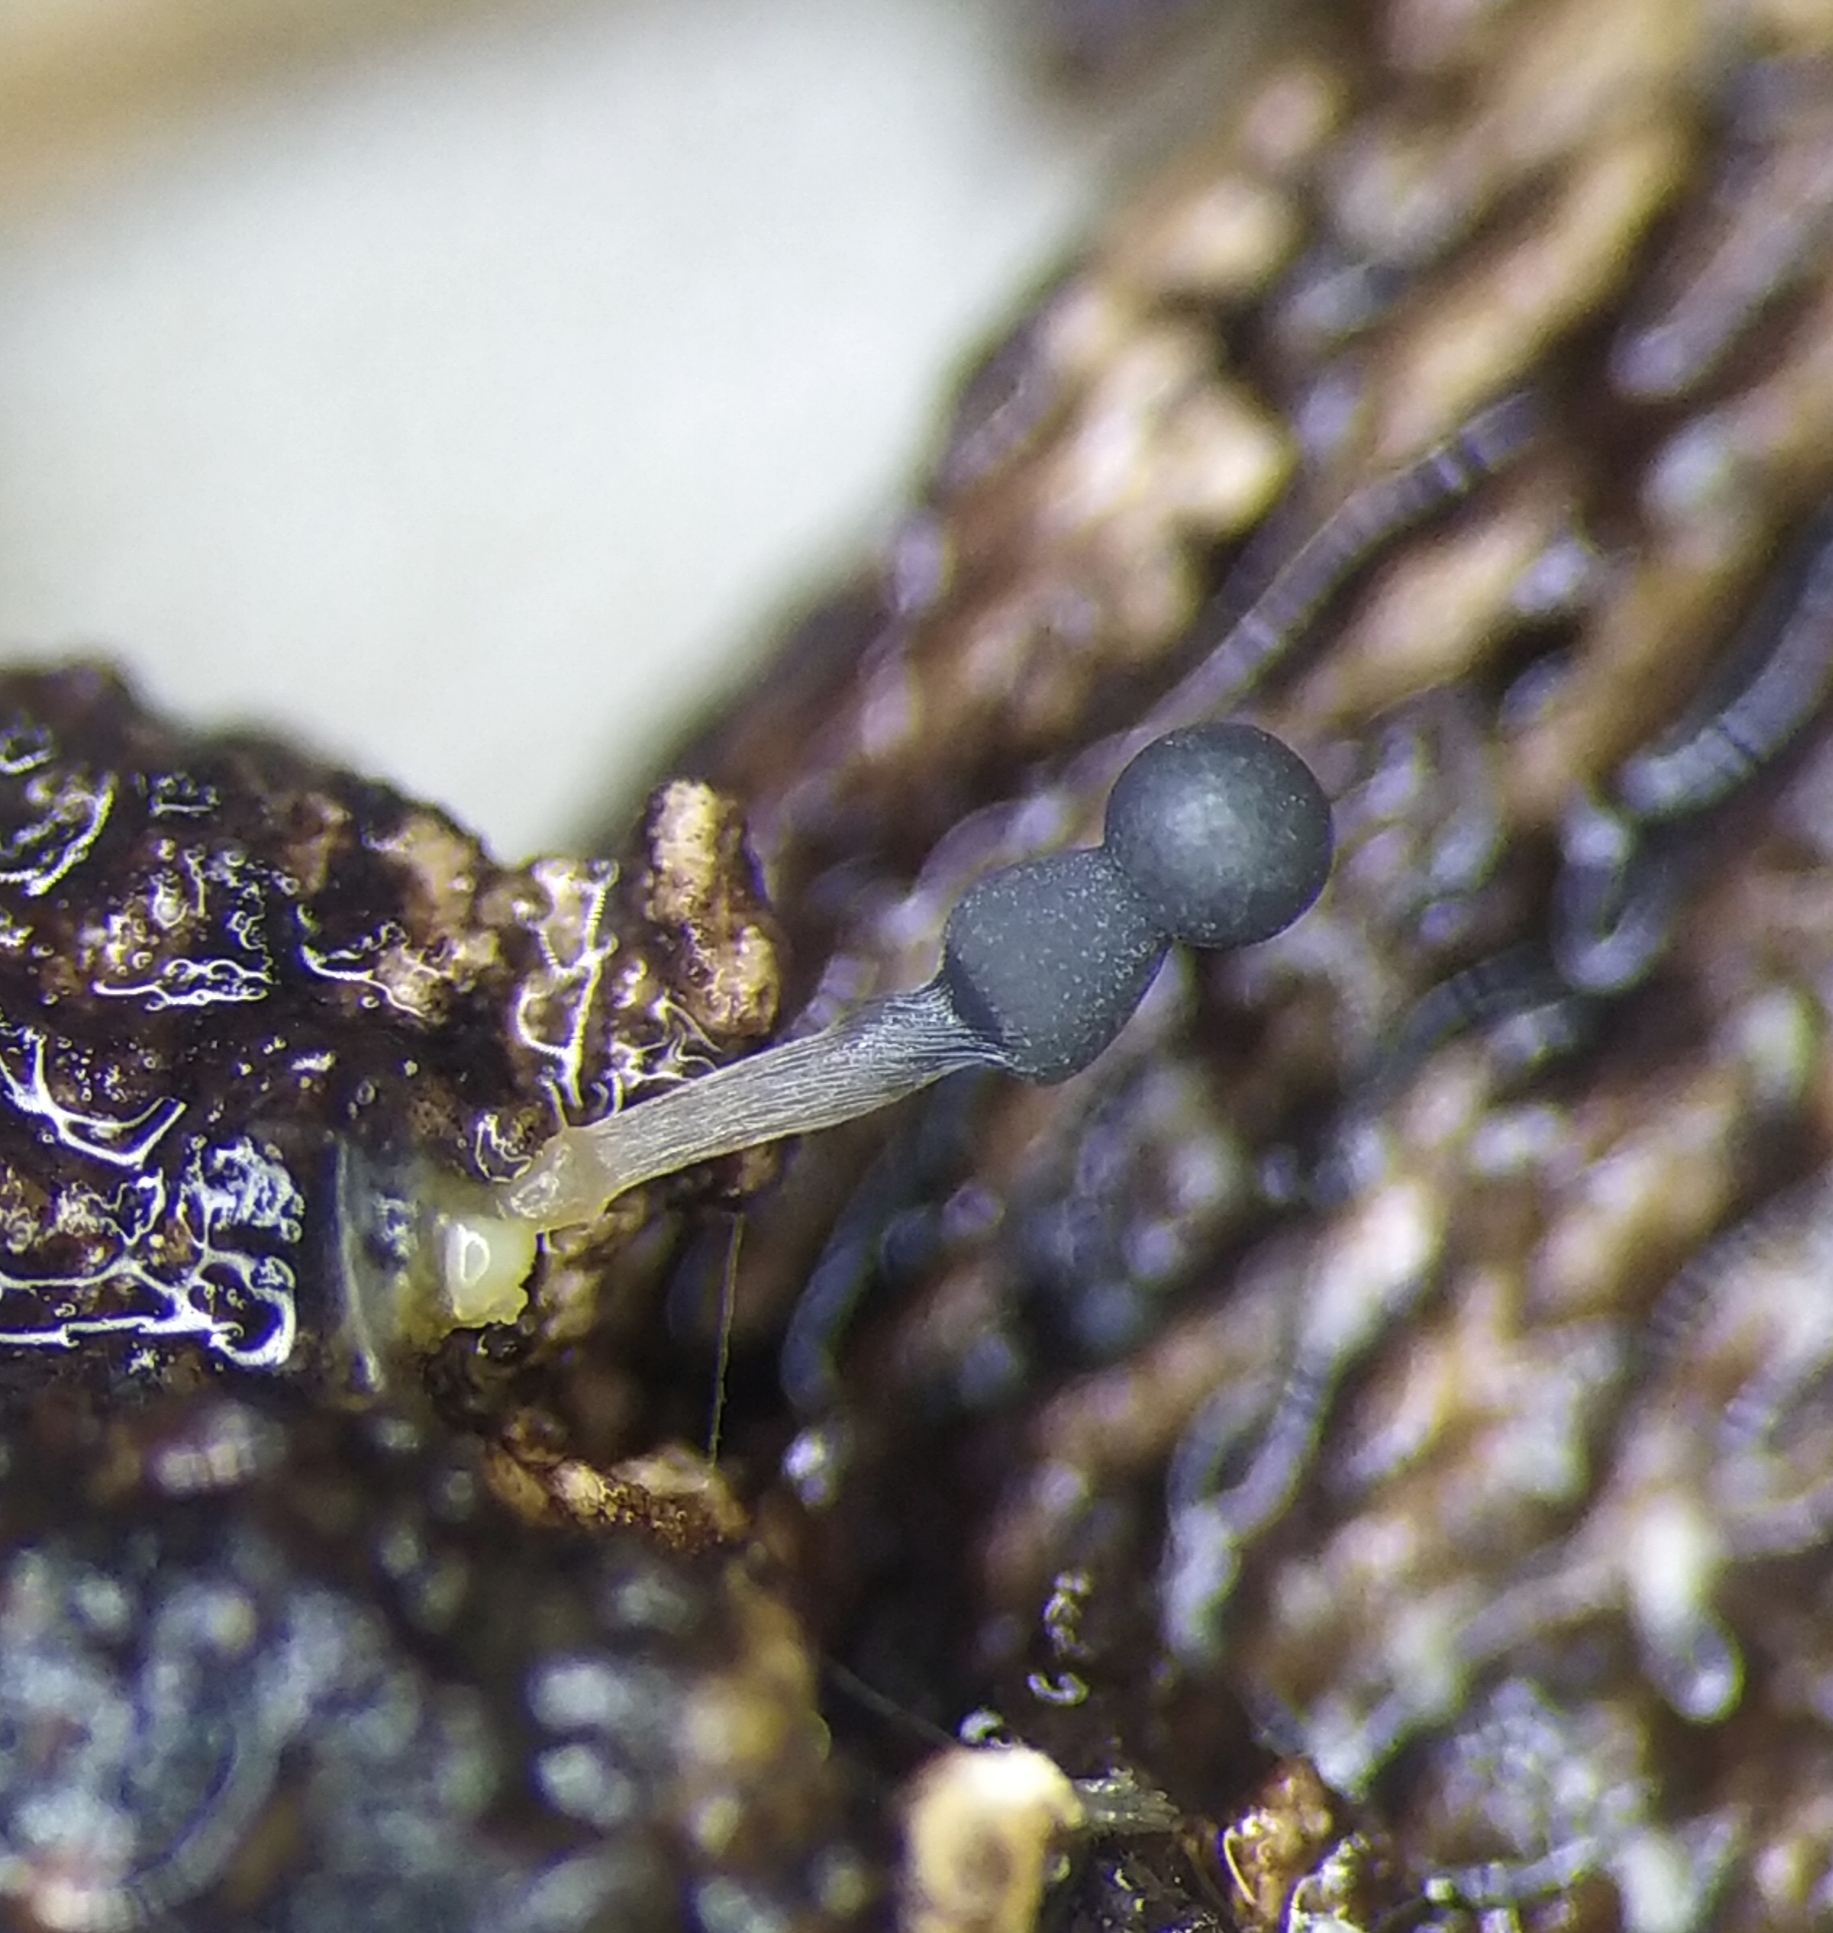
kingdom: Protozoa
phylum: Mycetozoa
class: Myxomycetes
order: Trichiales
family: Arcyriaceae
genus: Arcyria
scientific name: Arcyria cinerea
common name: White carnival candy slime mold
